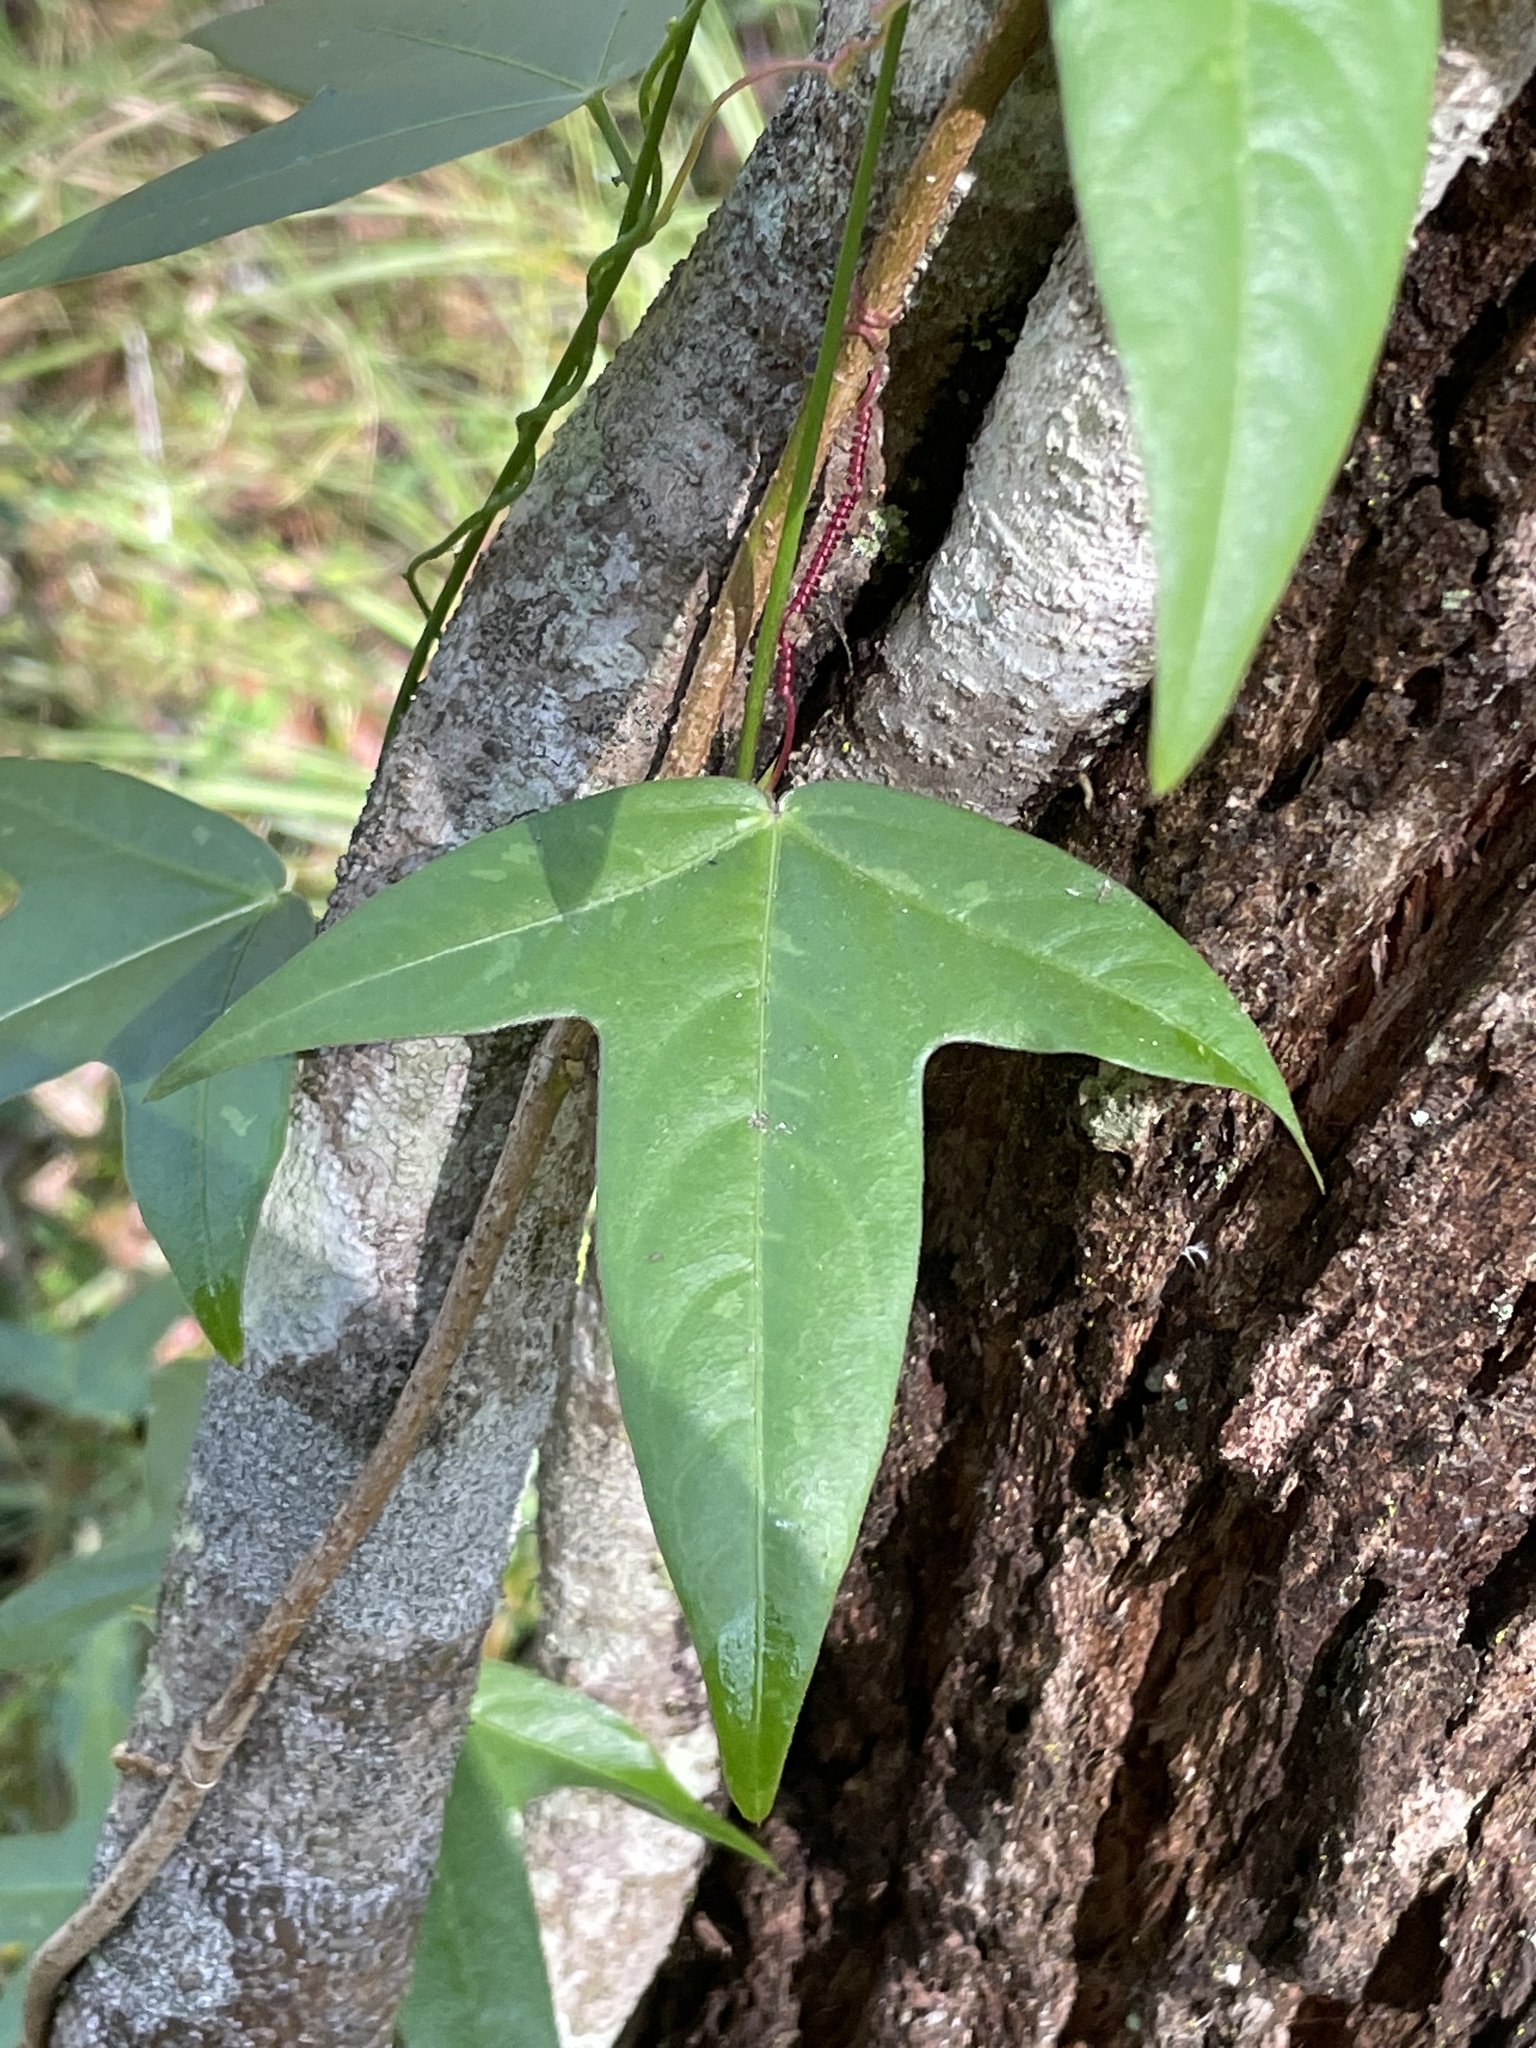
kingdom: Plantae
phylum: Tracheophyta
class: Magnoliopsida
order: Malpighiales
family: Passifloraceae
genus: Passiflora
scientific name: Passiflora suberosa
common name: Wild passionfruit
